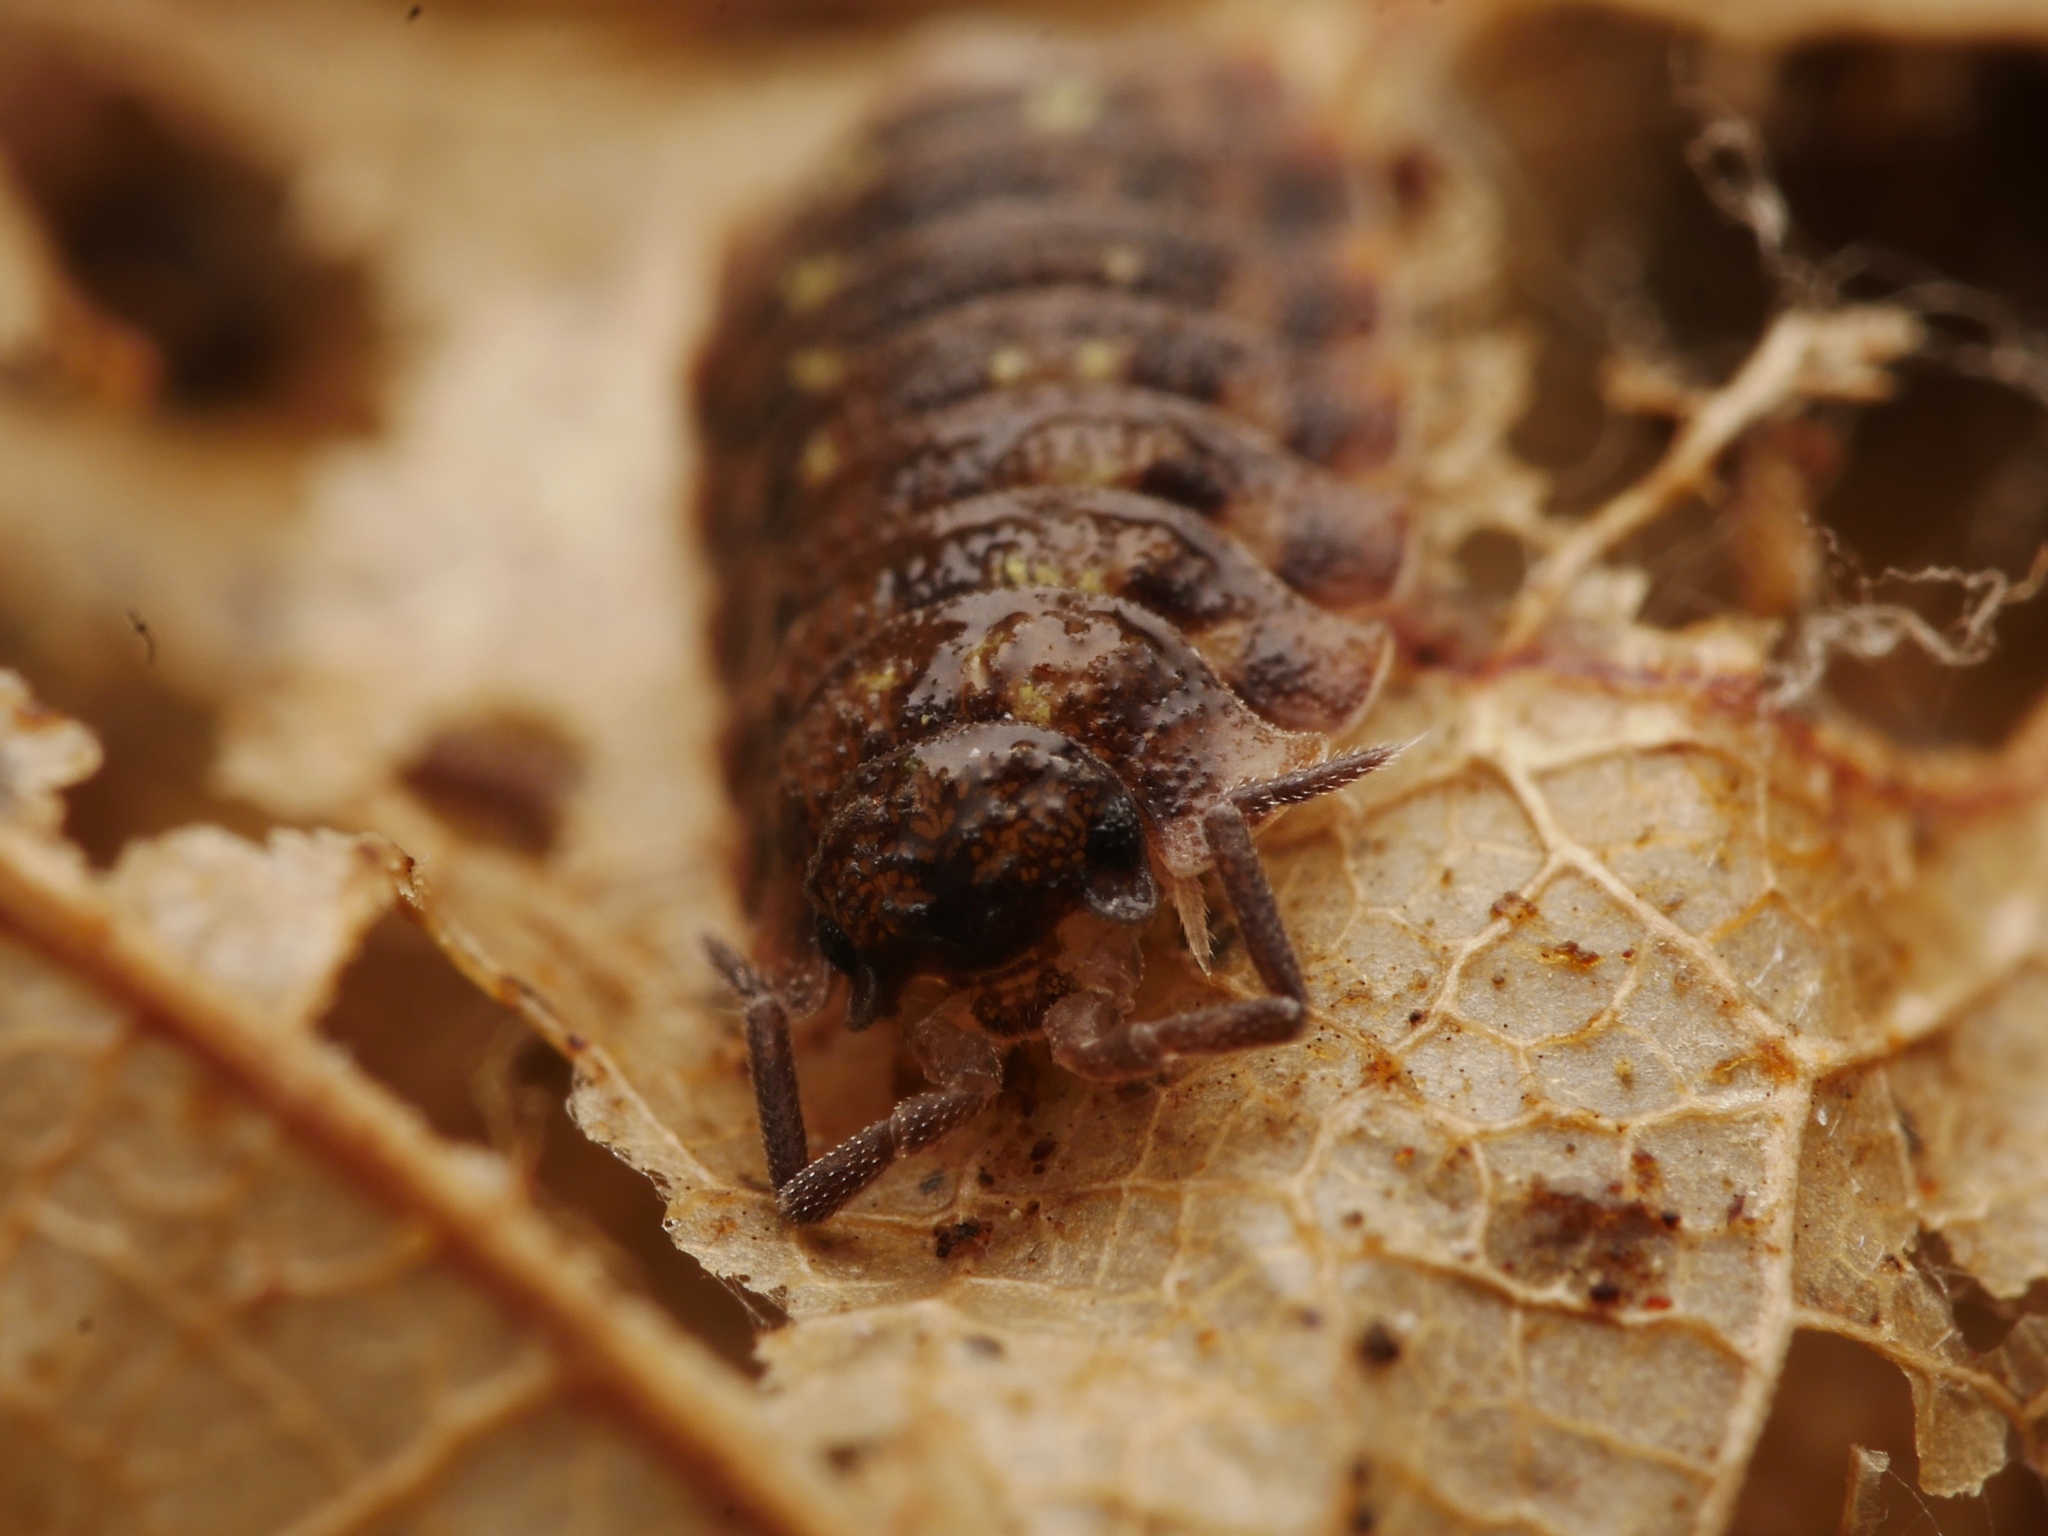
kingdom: Animalia
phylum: Arthropoda
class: Malacostraca
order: Isopoda
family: Oniscidae
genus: Oniscus
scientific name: Oniscus asellus
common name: Common shiny woodlouse
